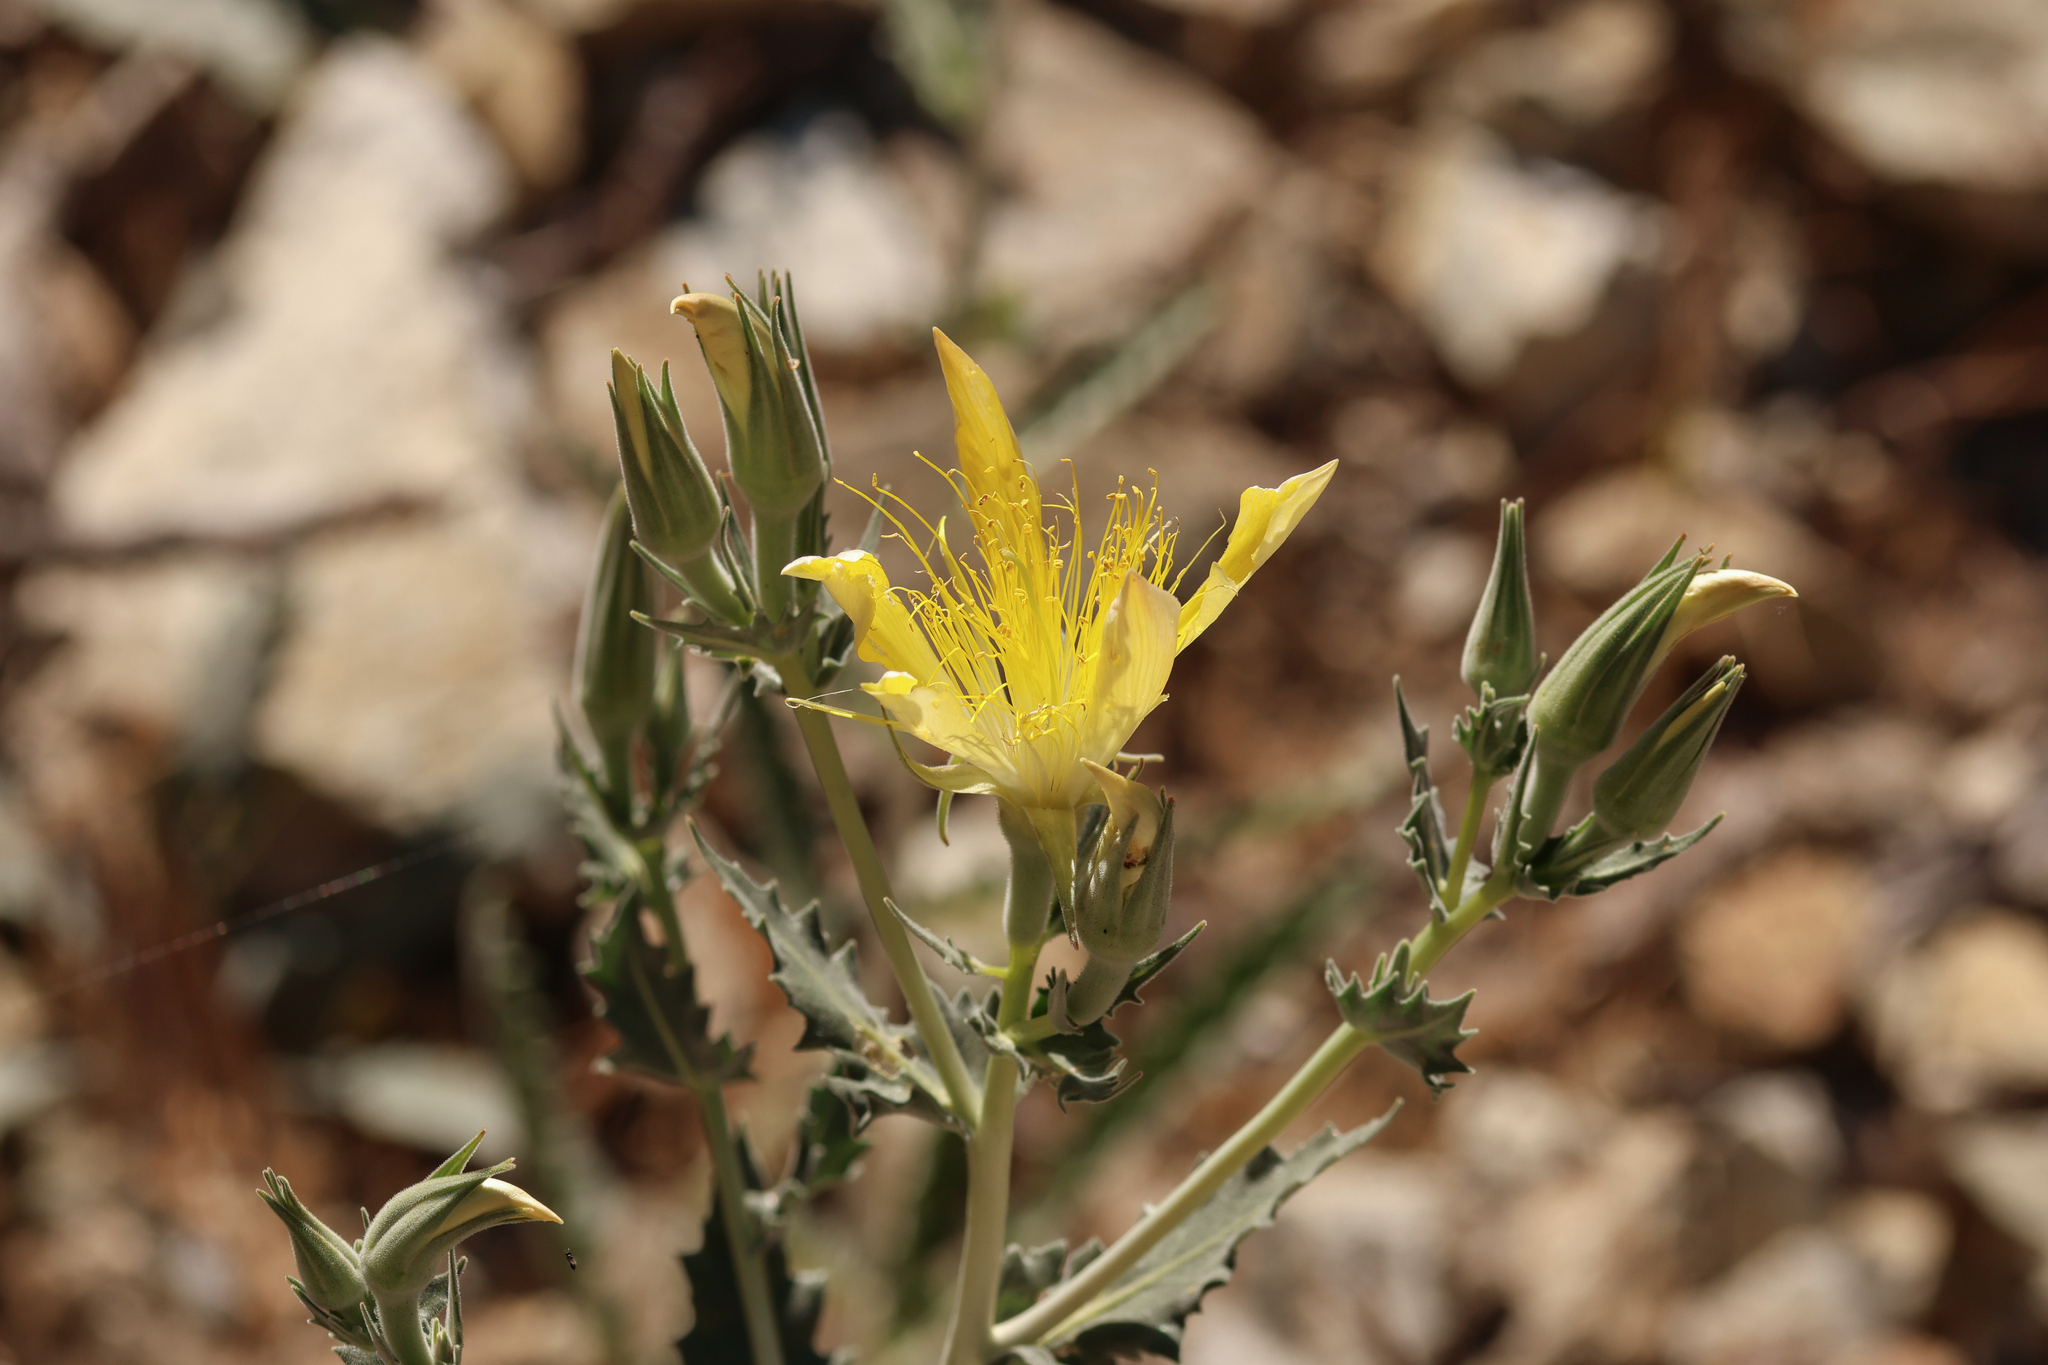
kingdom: Plantae
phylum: Tracheophyta
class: Magnoliopsida
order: Cornales
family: Loasaceae
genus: Mentzelia
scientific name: Mentzelia laevicaulis
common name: Smooth-stem blazingstar
